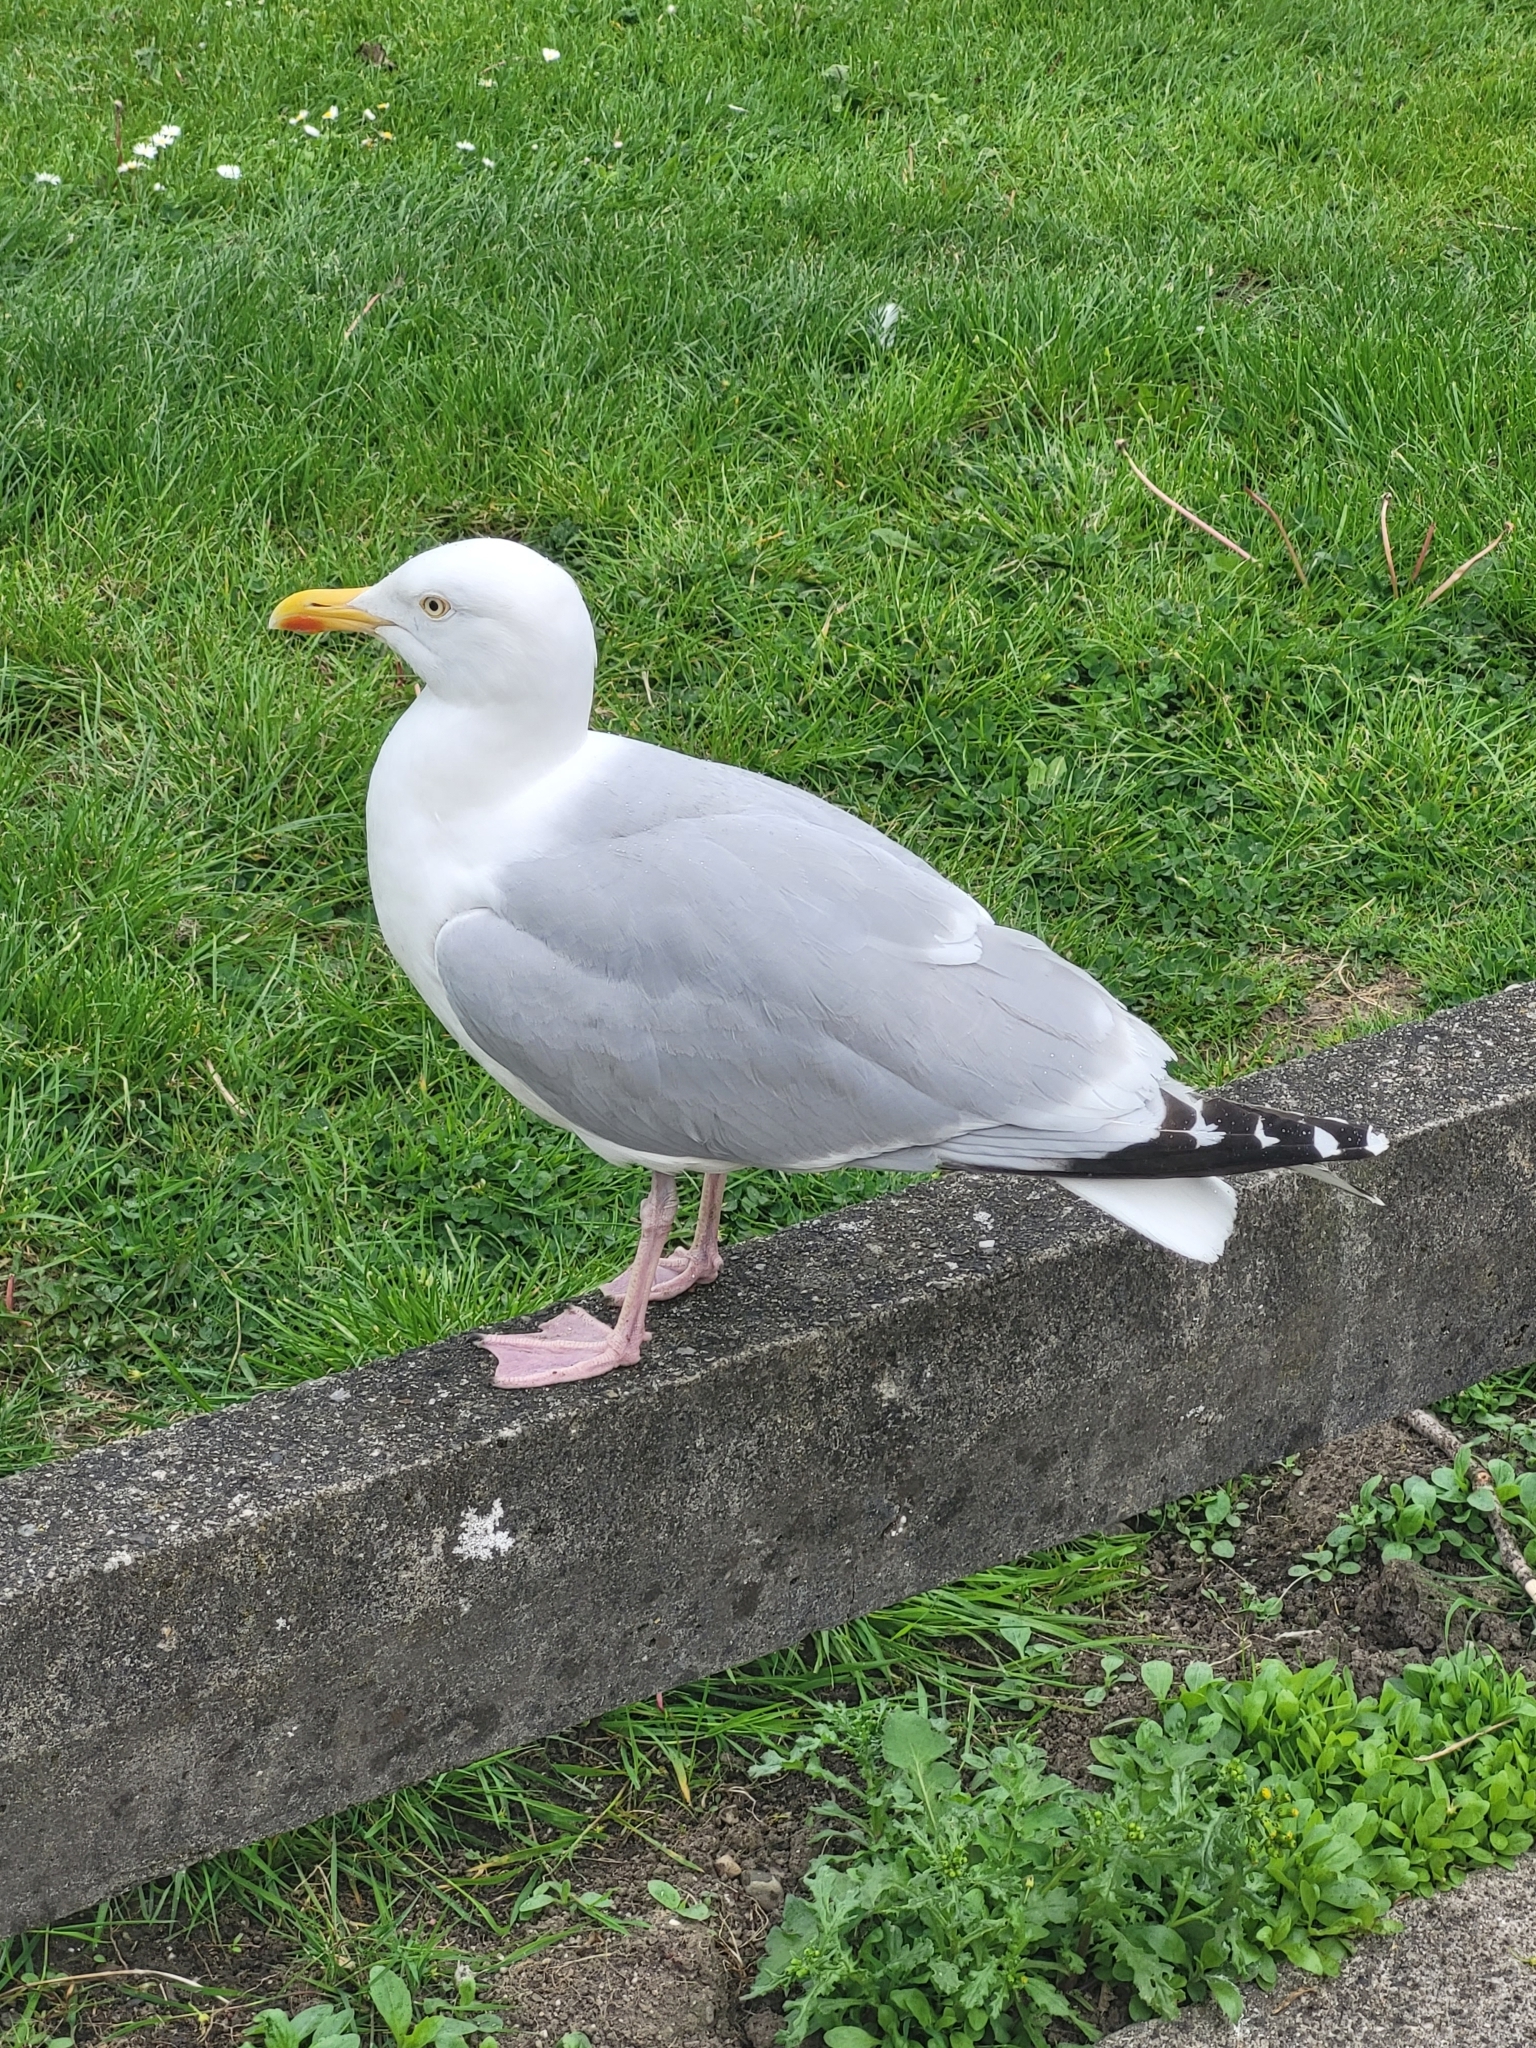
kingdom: Animalia
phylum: Chordata
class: Aves
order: Charadriiformes
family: Laridae
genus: Larus
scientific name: Larus argentatus
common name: Herring gull
